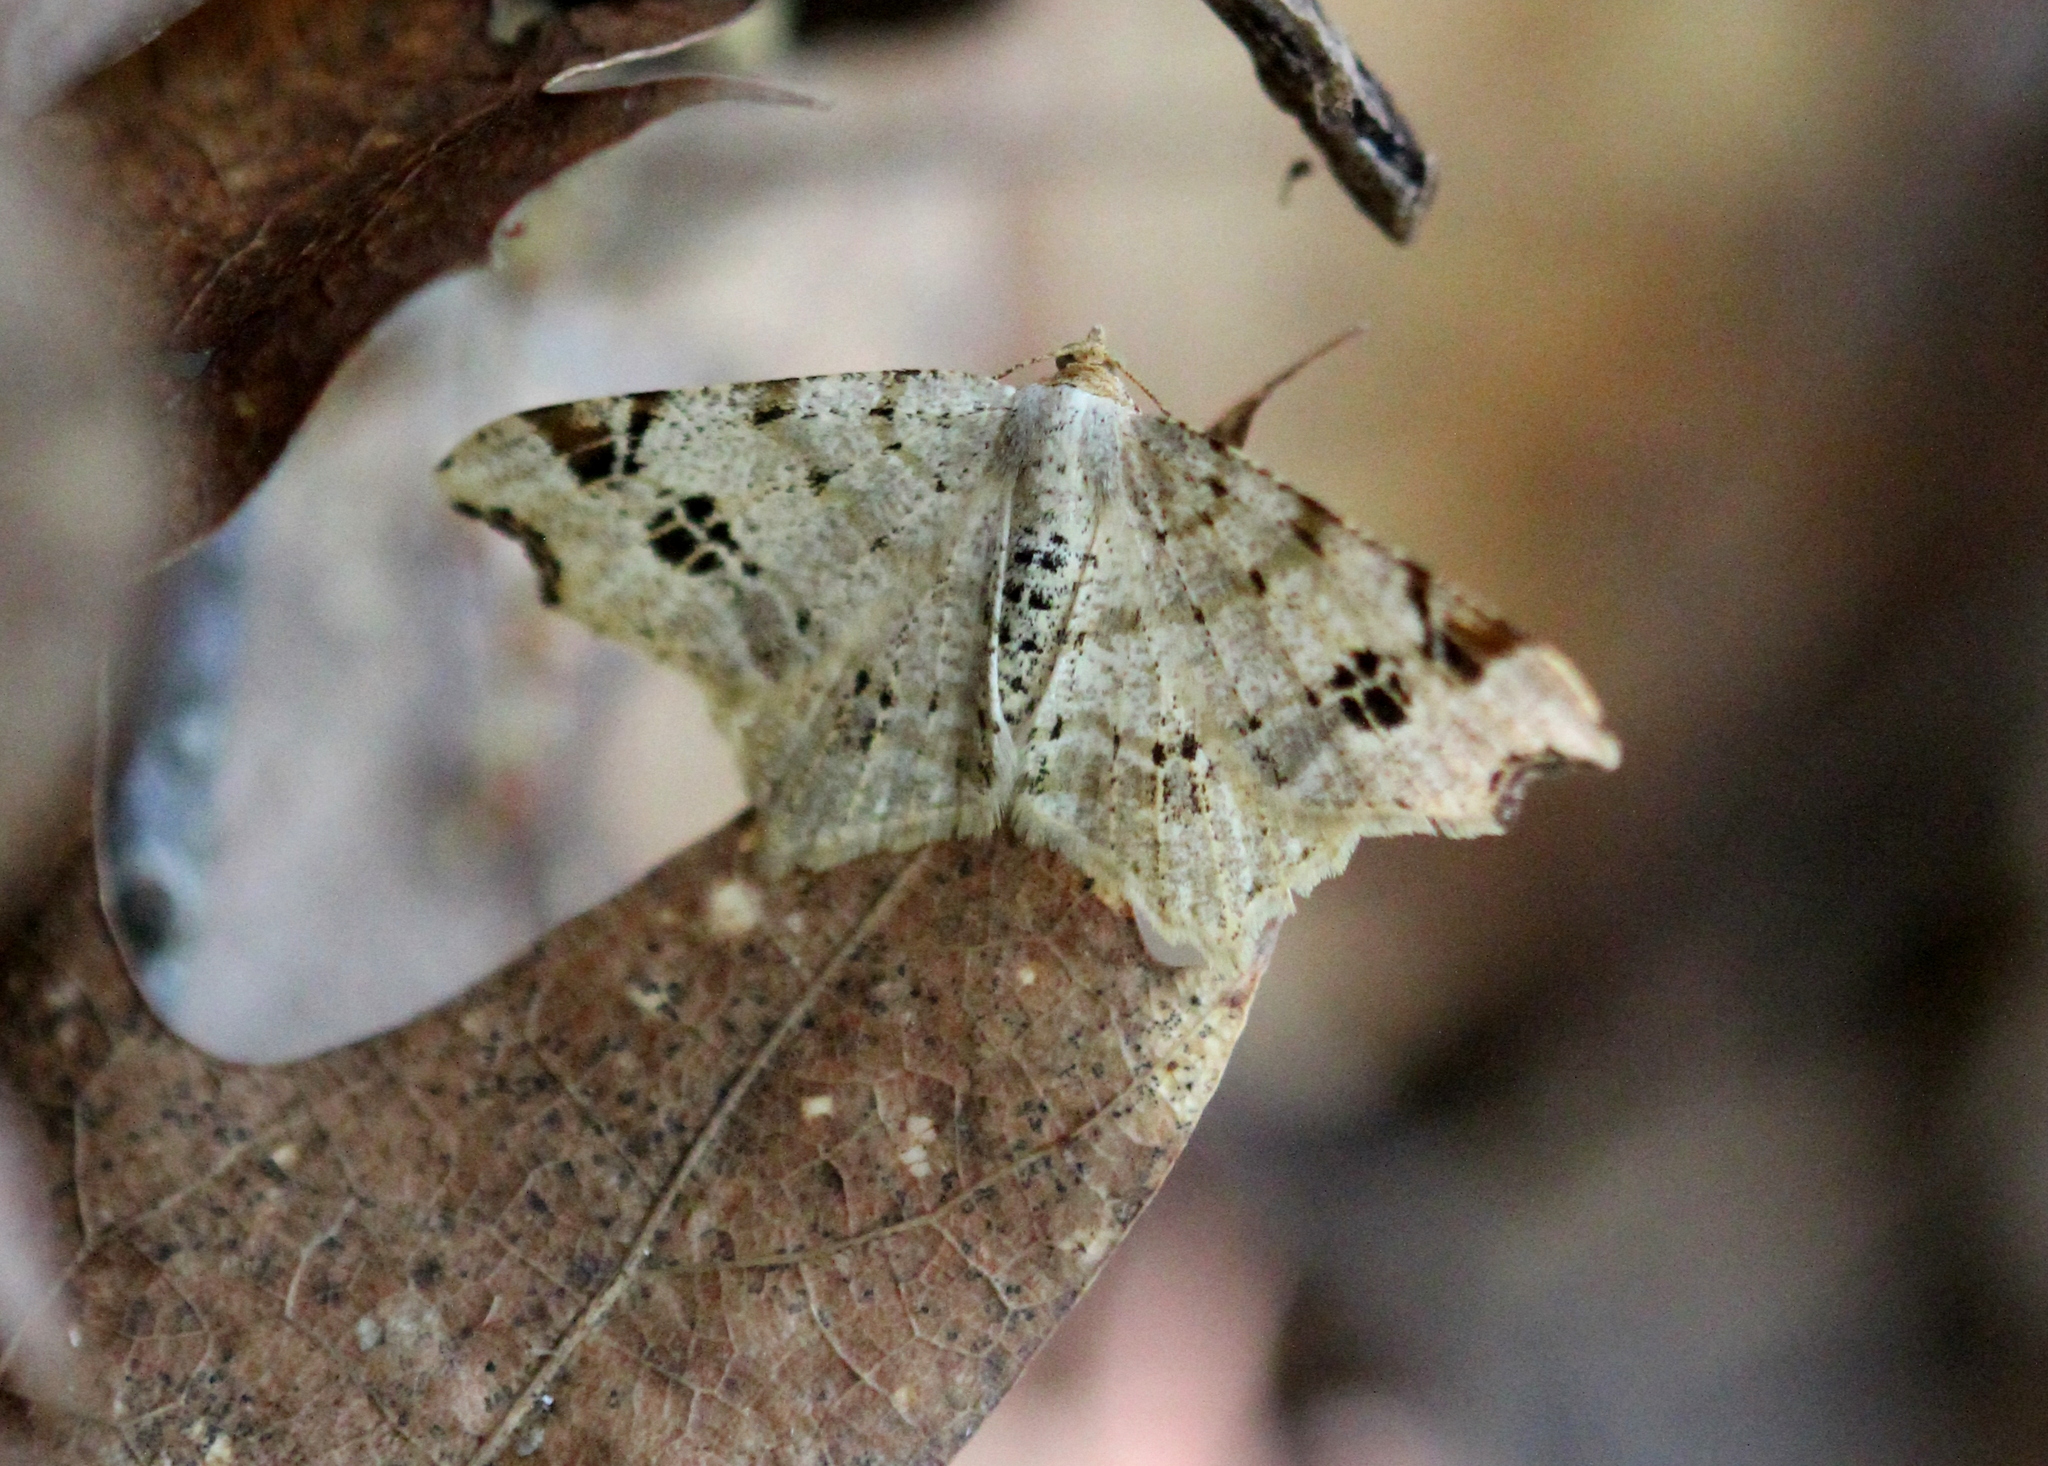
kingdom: Animalia
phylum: Arthropoda
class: Insecta
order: Lepidoptera
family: Geometridae
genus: Macaria
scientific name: Macaria aemulataria
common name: Common angle
